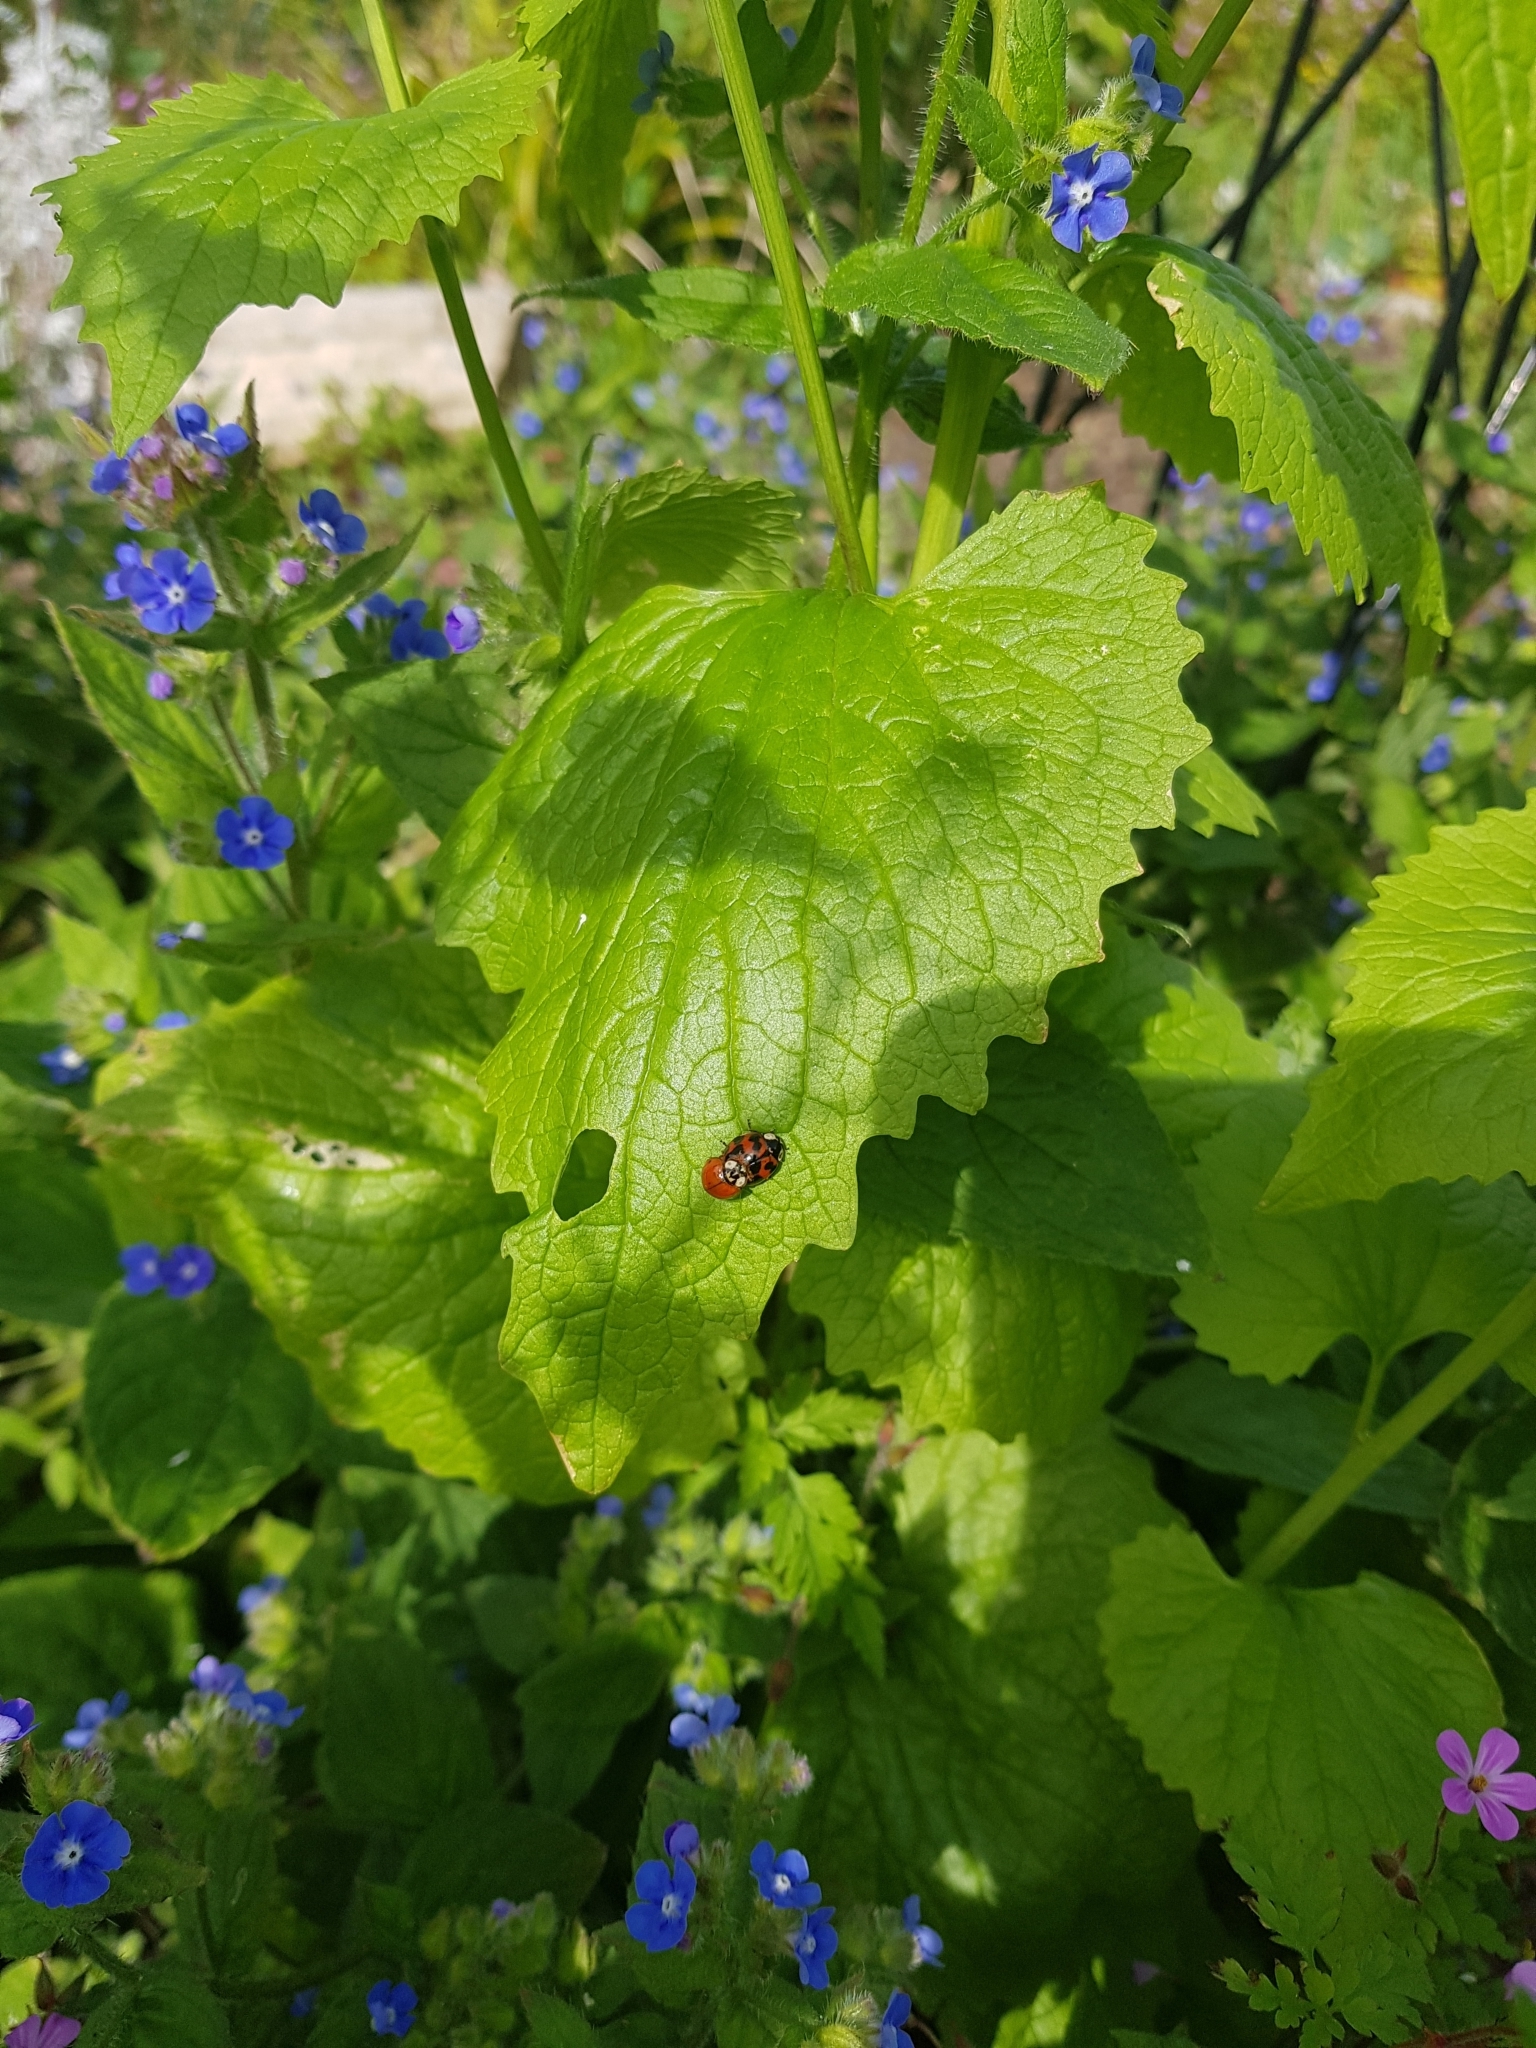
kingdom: Animalia
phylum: Arthropoda
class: Insecta
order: Coleoptera
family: Coccinellidae
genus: Harmonia
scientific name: Harmonia axyridis
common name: Harlequin ladybird
